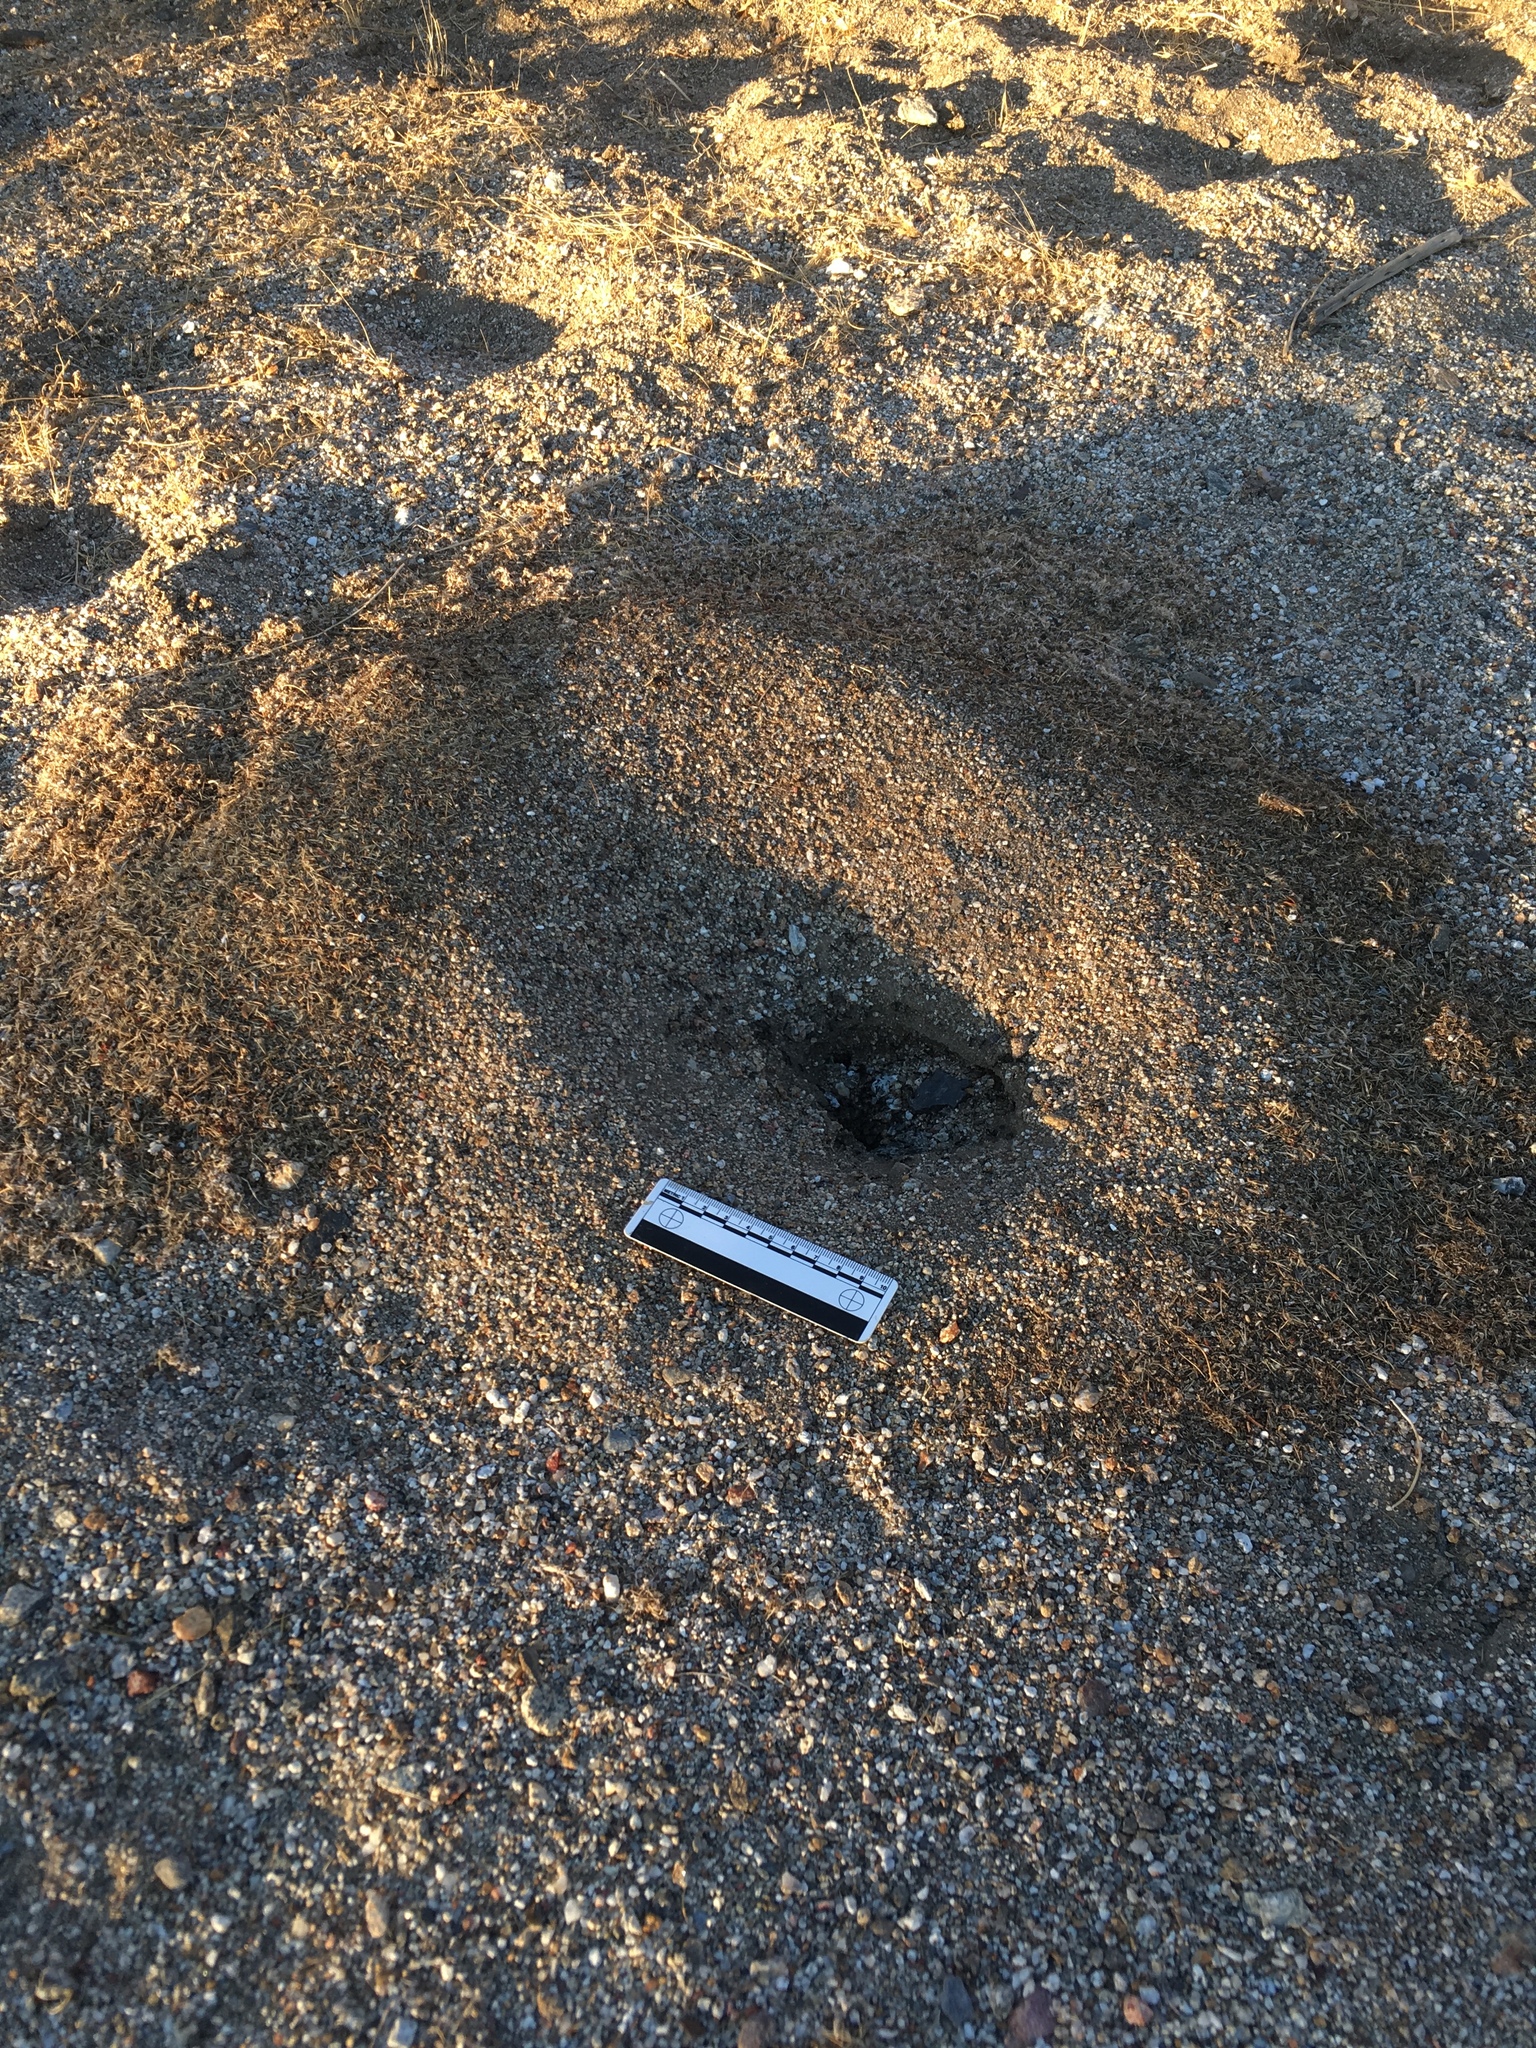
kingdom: Animalia
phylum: Arthropoda
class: Insecta
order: Hymenoptera
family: Formicidae
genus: Messor
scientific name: Messor pergandei
